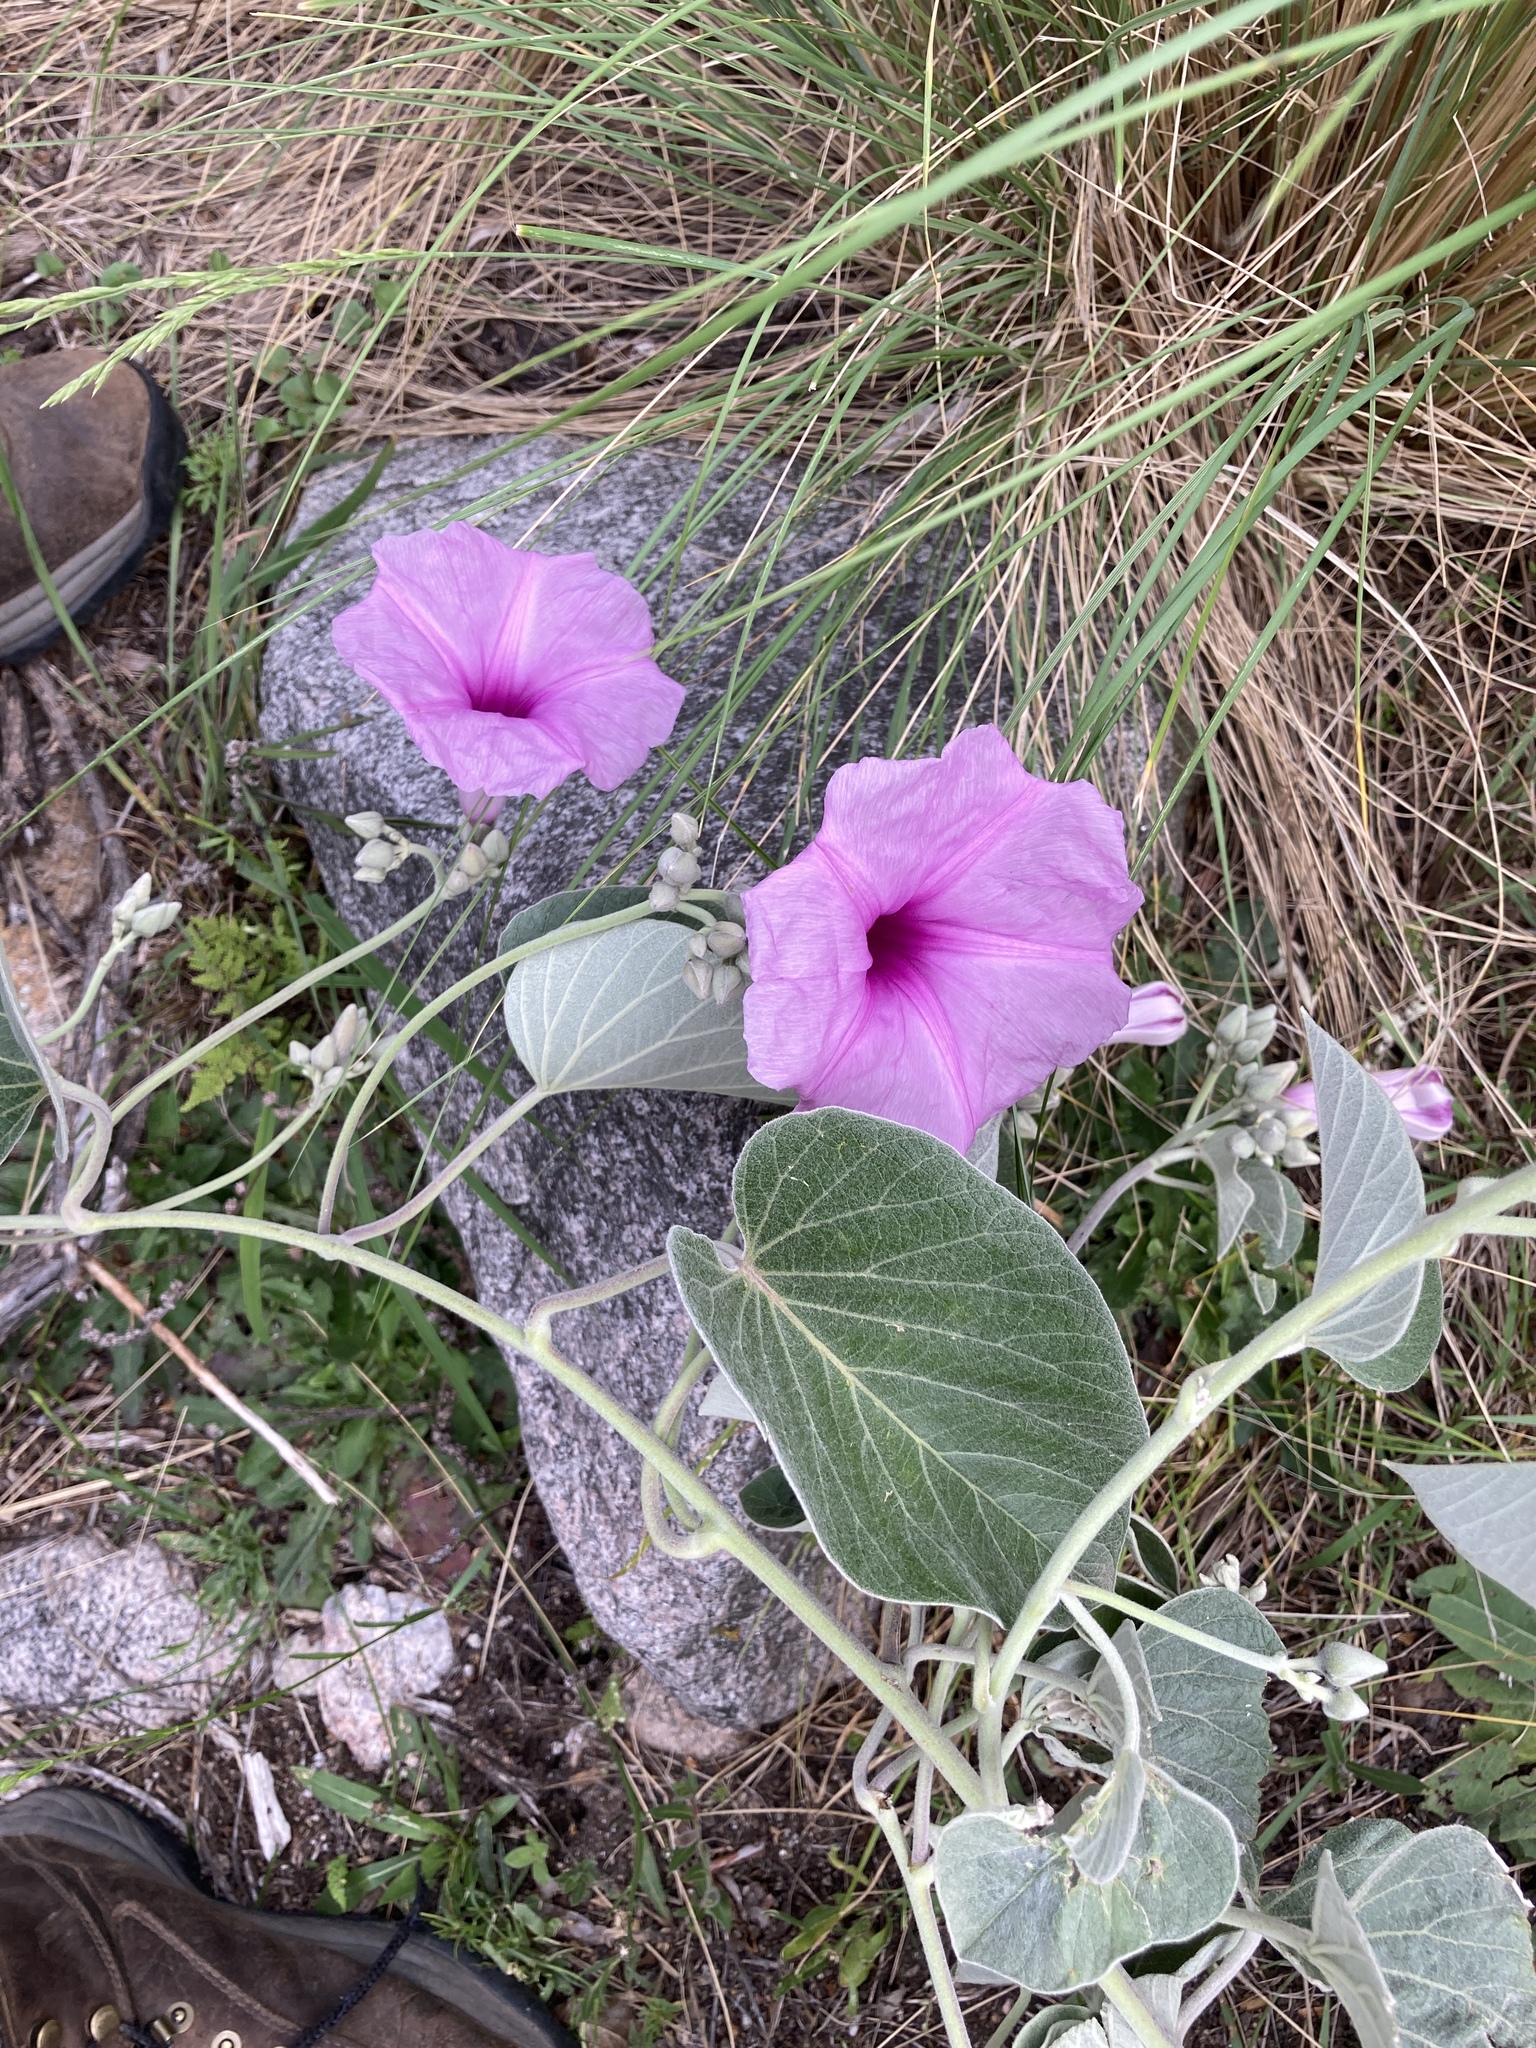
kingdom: Plantae
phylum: Tracheophyta
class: Magnoliopsida
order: Solanales
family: Convolvulaceae
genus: Ipomoea
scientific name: Ipomoea hieronymi
